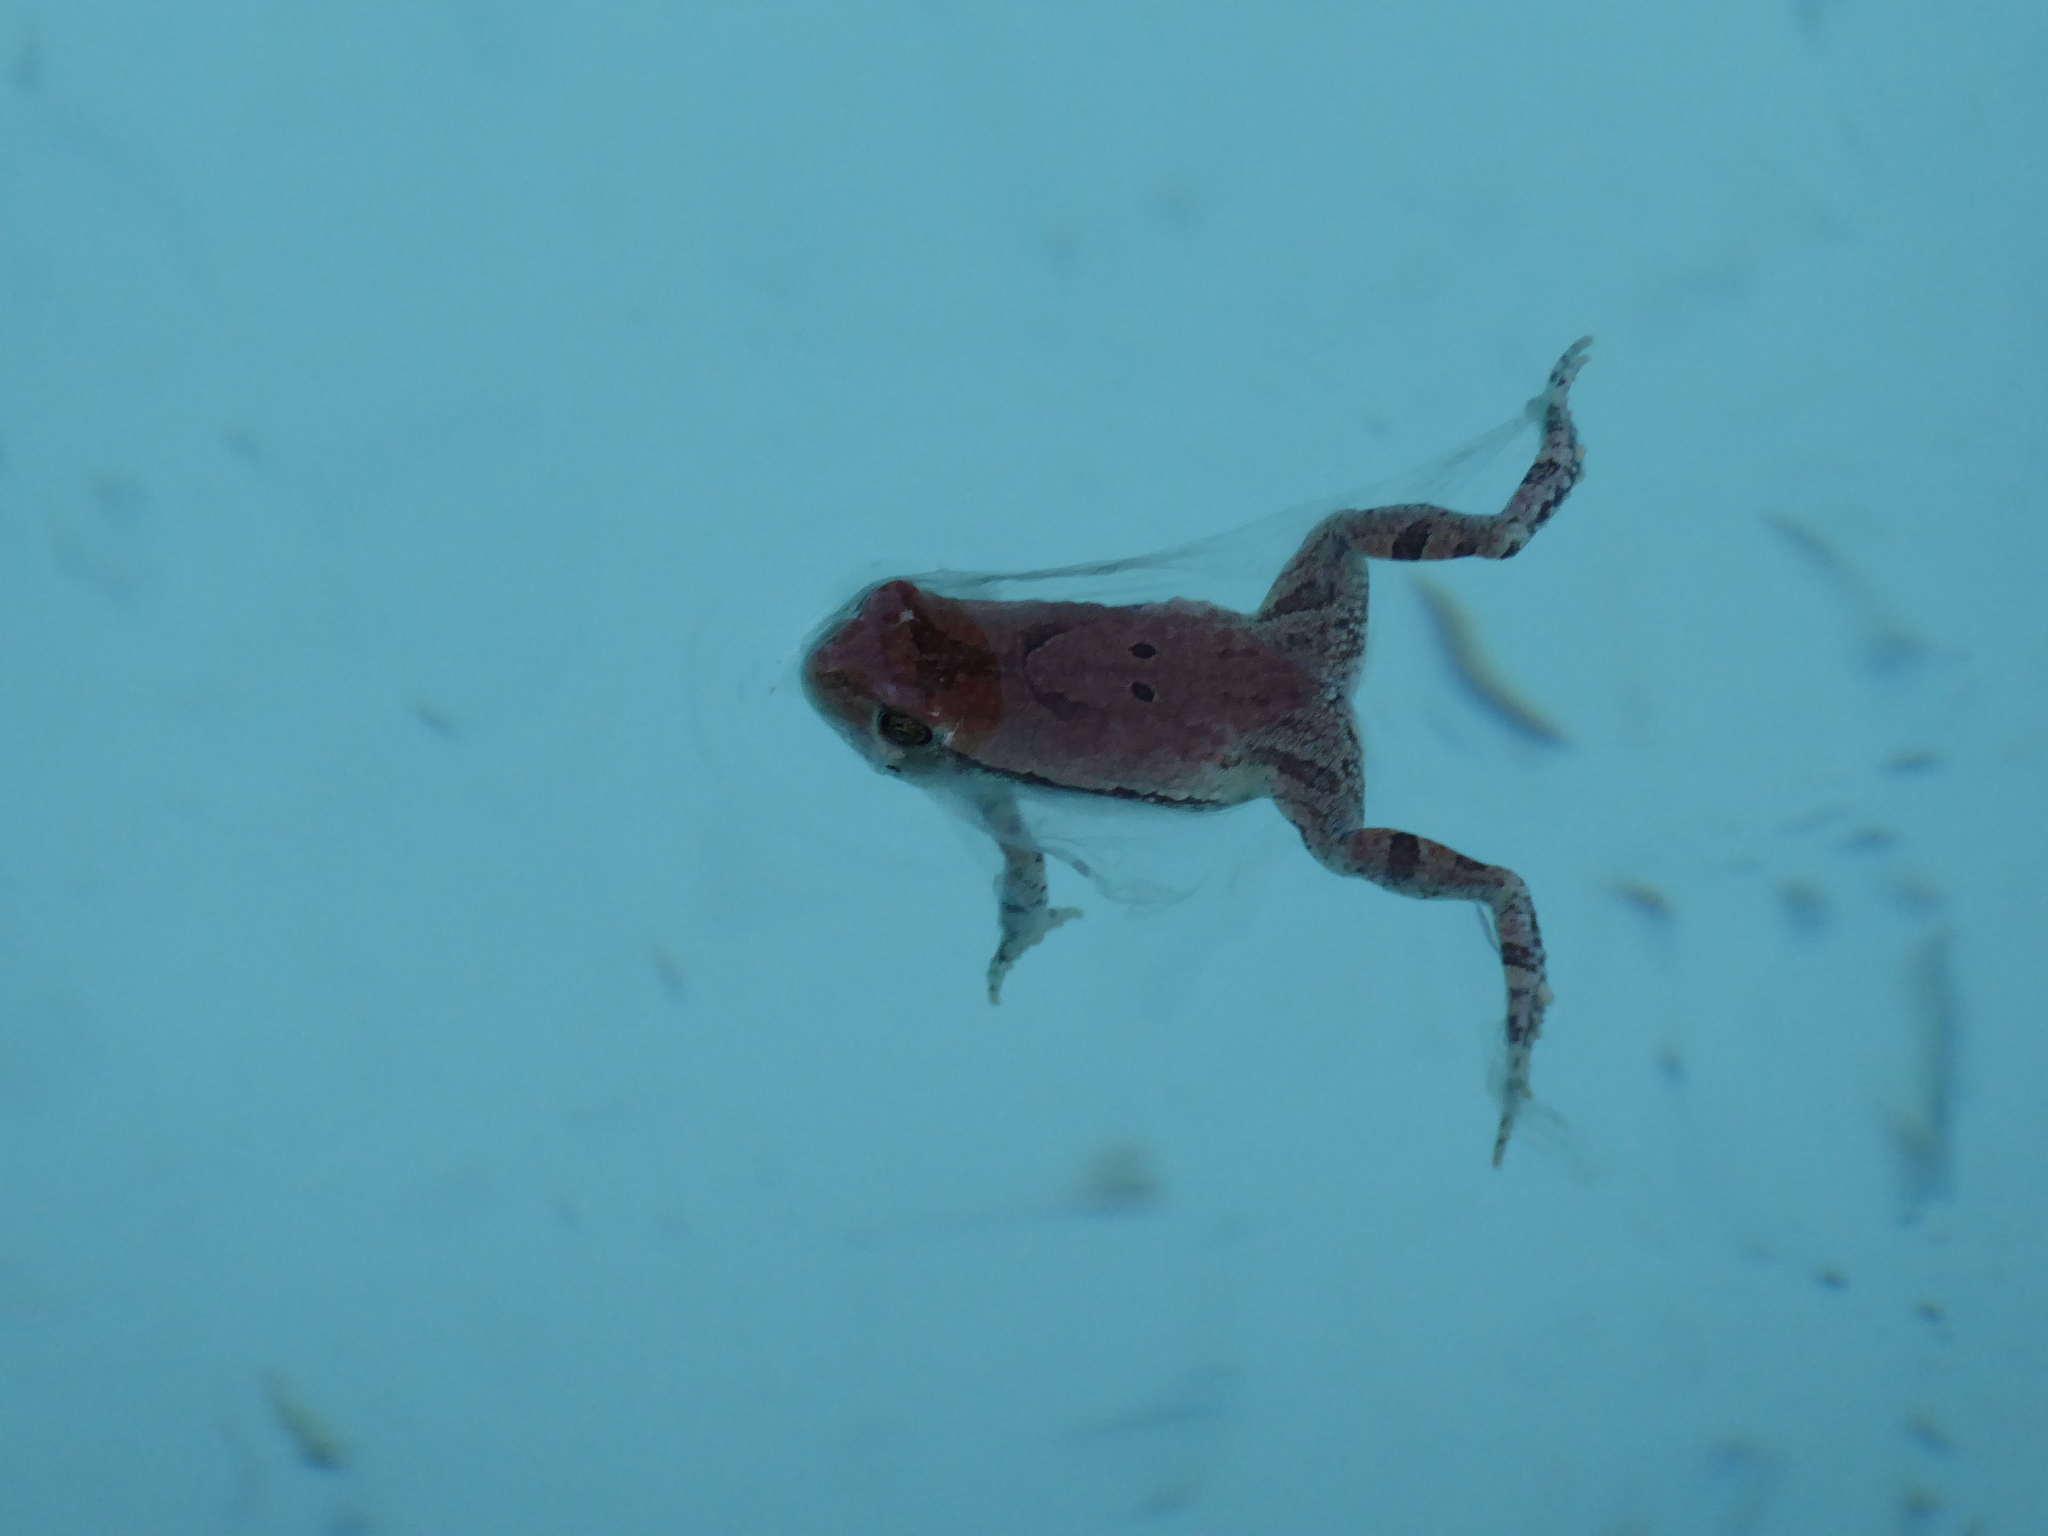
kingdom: Animalia
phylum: Chordata
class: Amphibia
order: Anura
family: Bufonidae
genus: Schismaderma
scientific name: Schismaderma carens
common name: African split-skin toad
